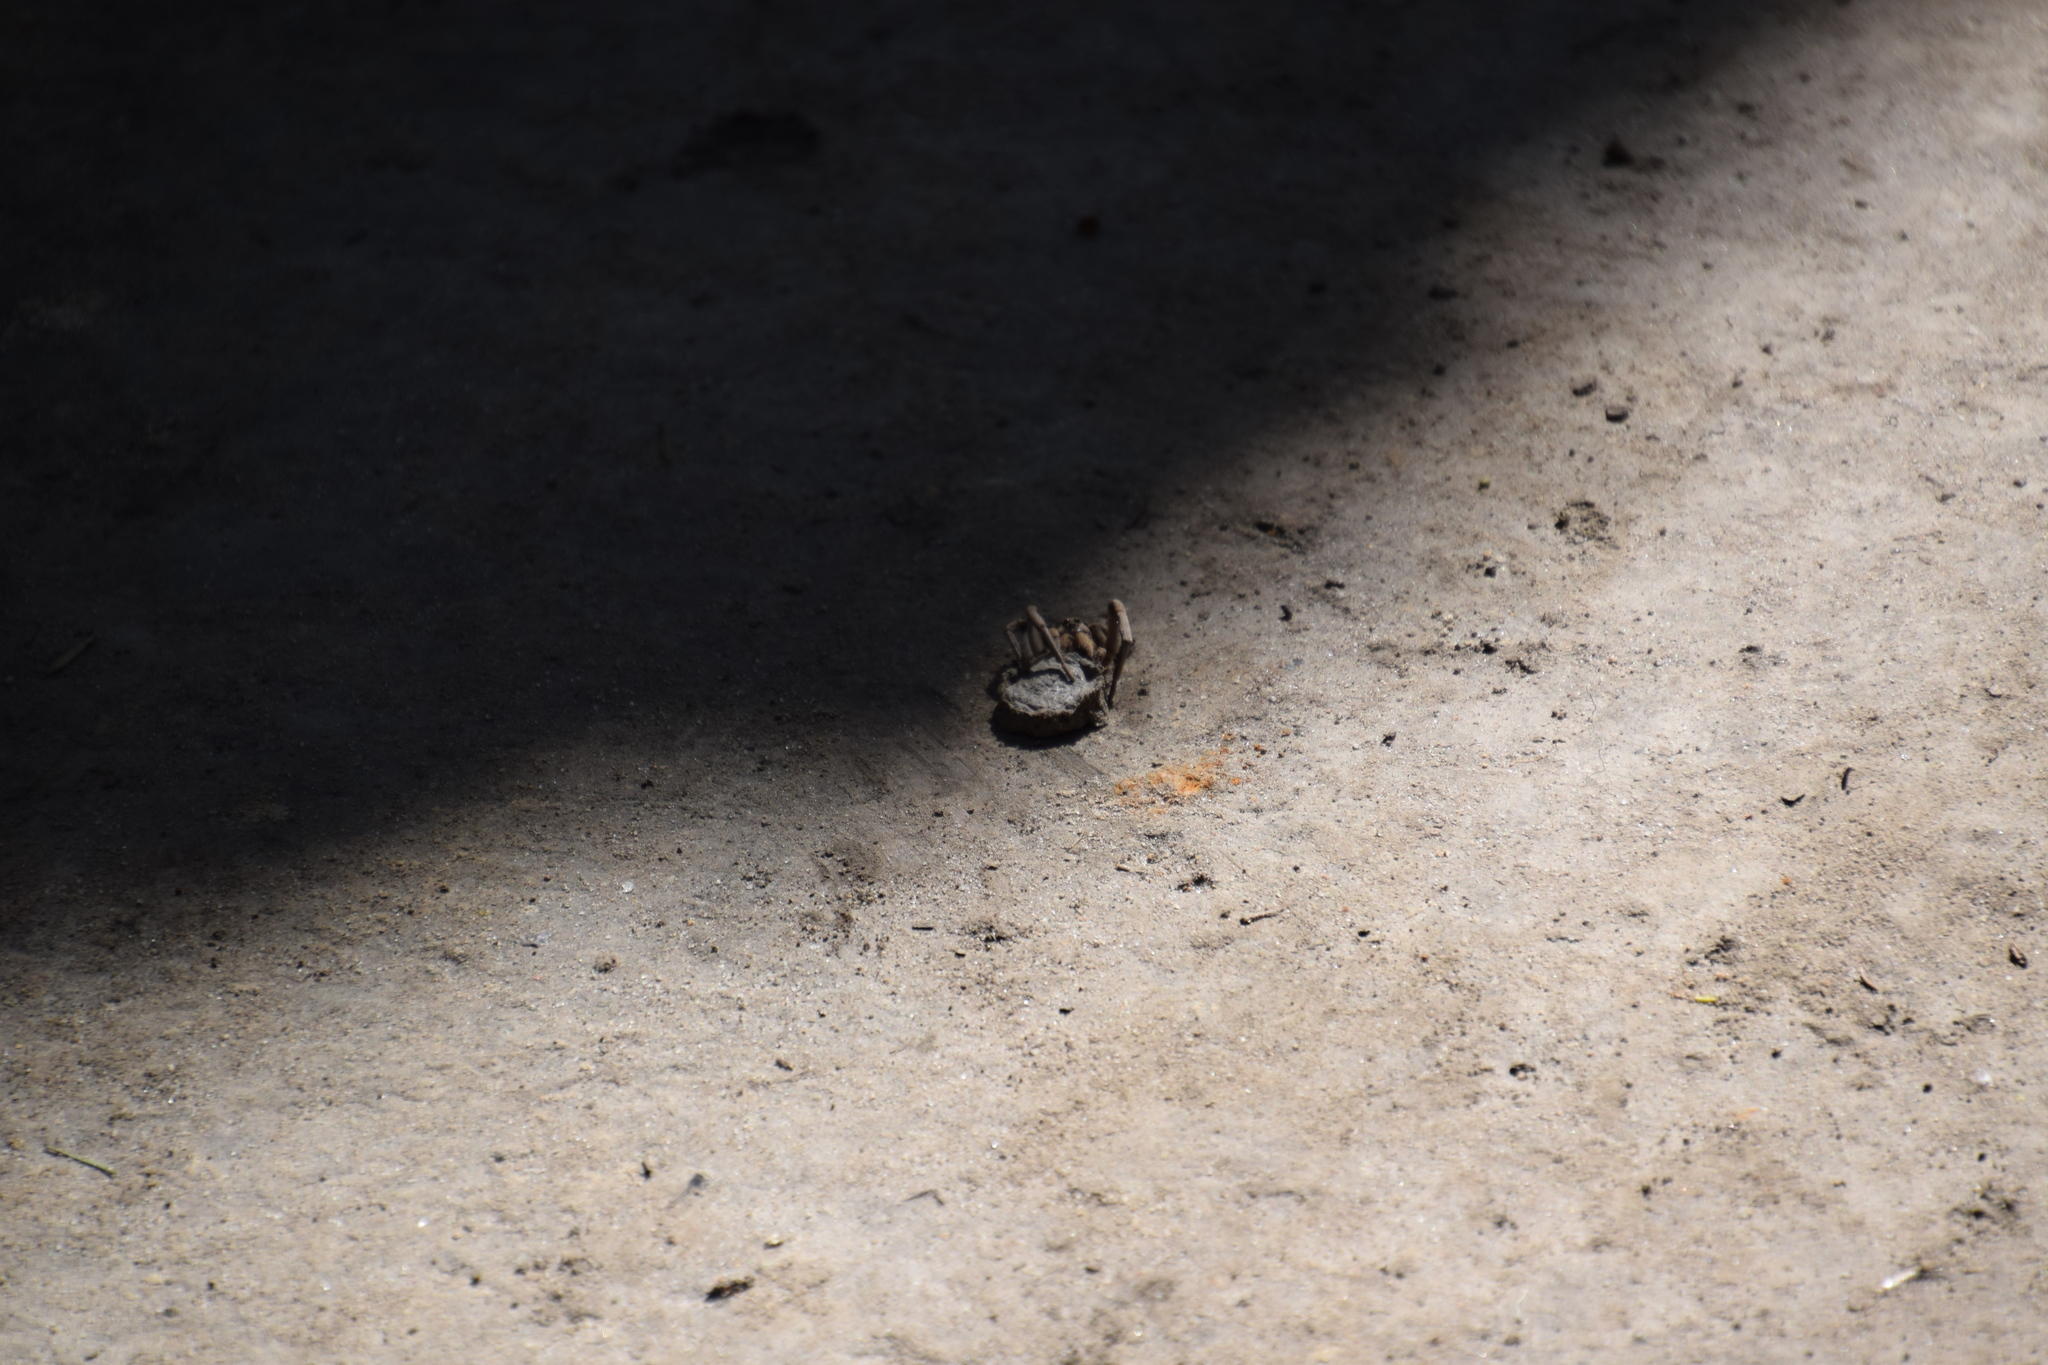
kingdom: Animalia
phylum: Arthropoda
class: Arachnida
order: Araneae
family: Lycosidae
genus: Portacosa
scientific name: Portacosa cinerea
